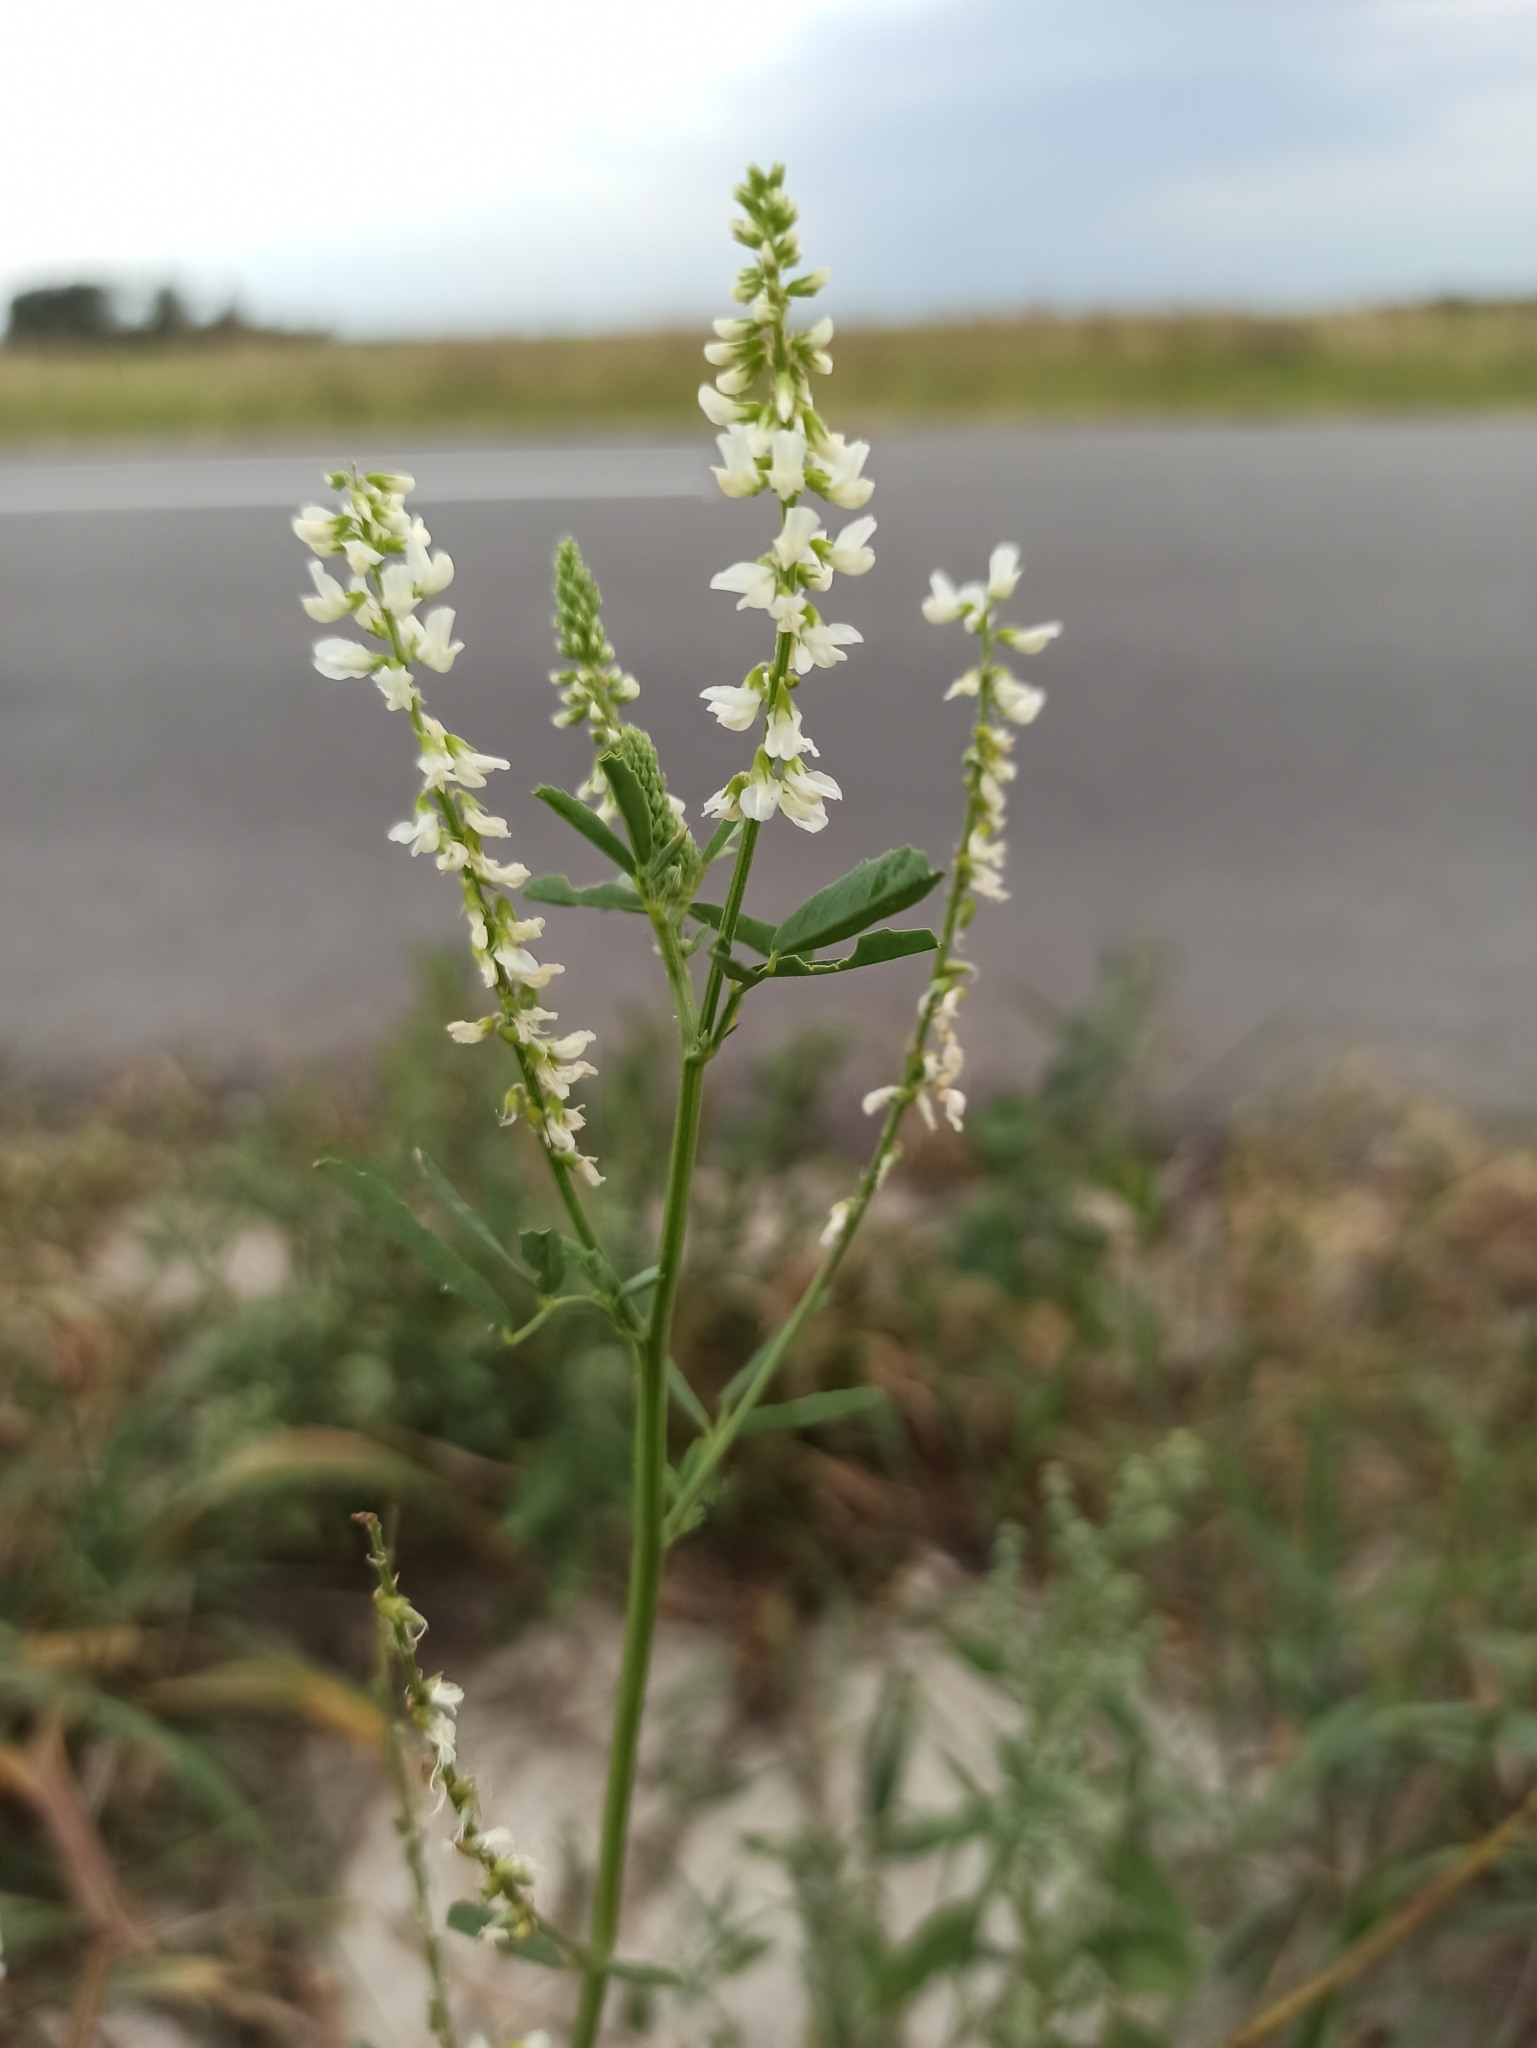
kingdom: Plantae
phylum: Tracheophyta
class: Magnoliopsida
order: Fabales
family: Fabaceae
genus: Melilotus
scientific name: Melilotus albus
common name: White melilot
